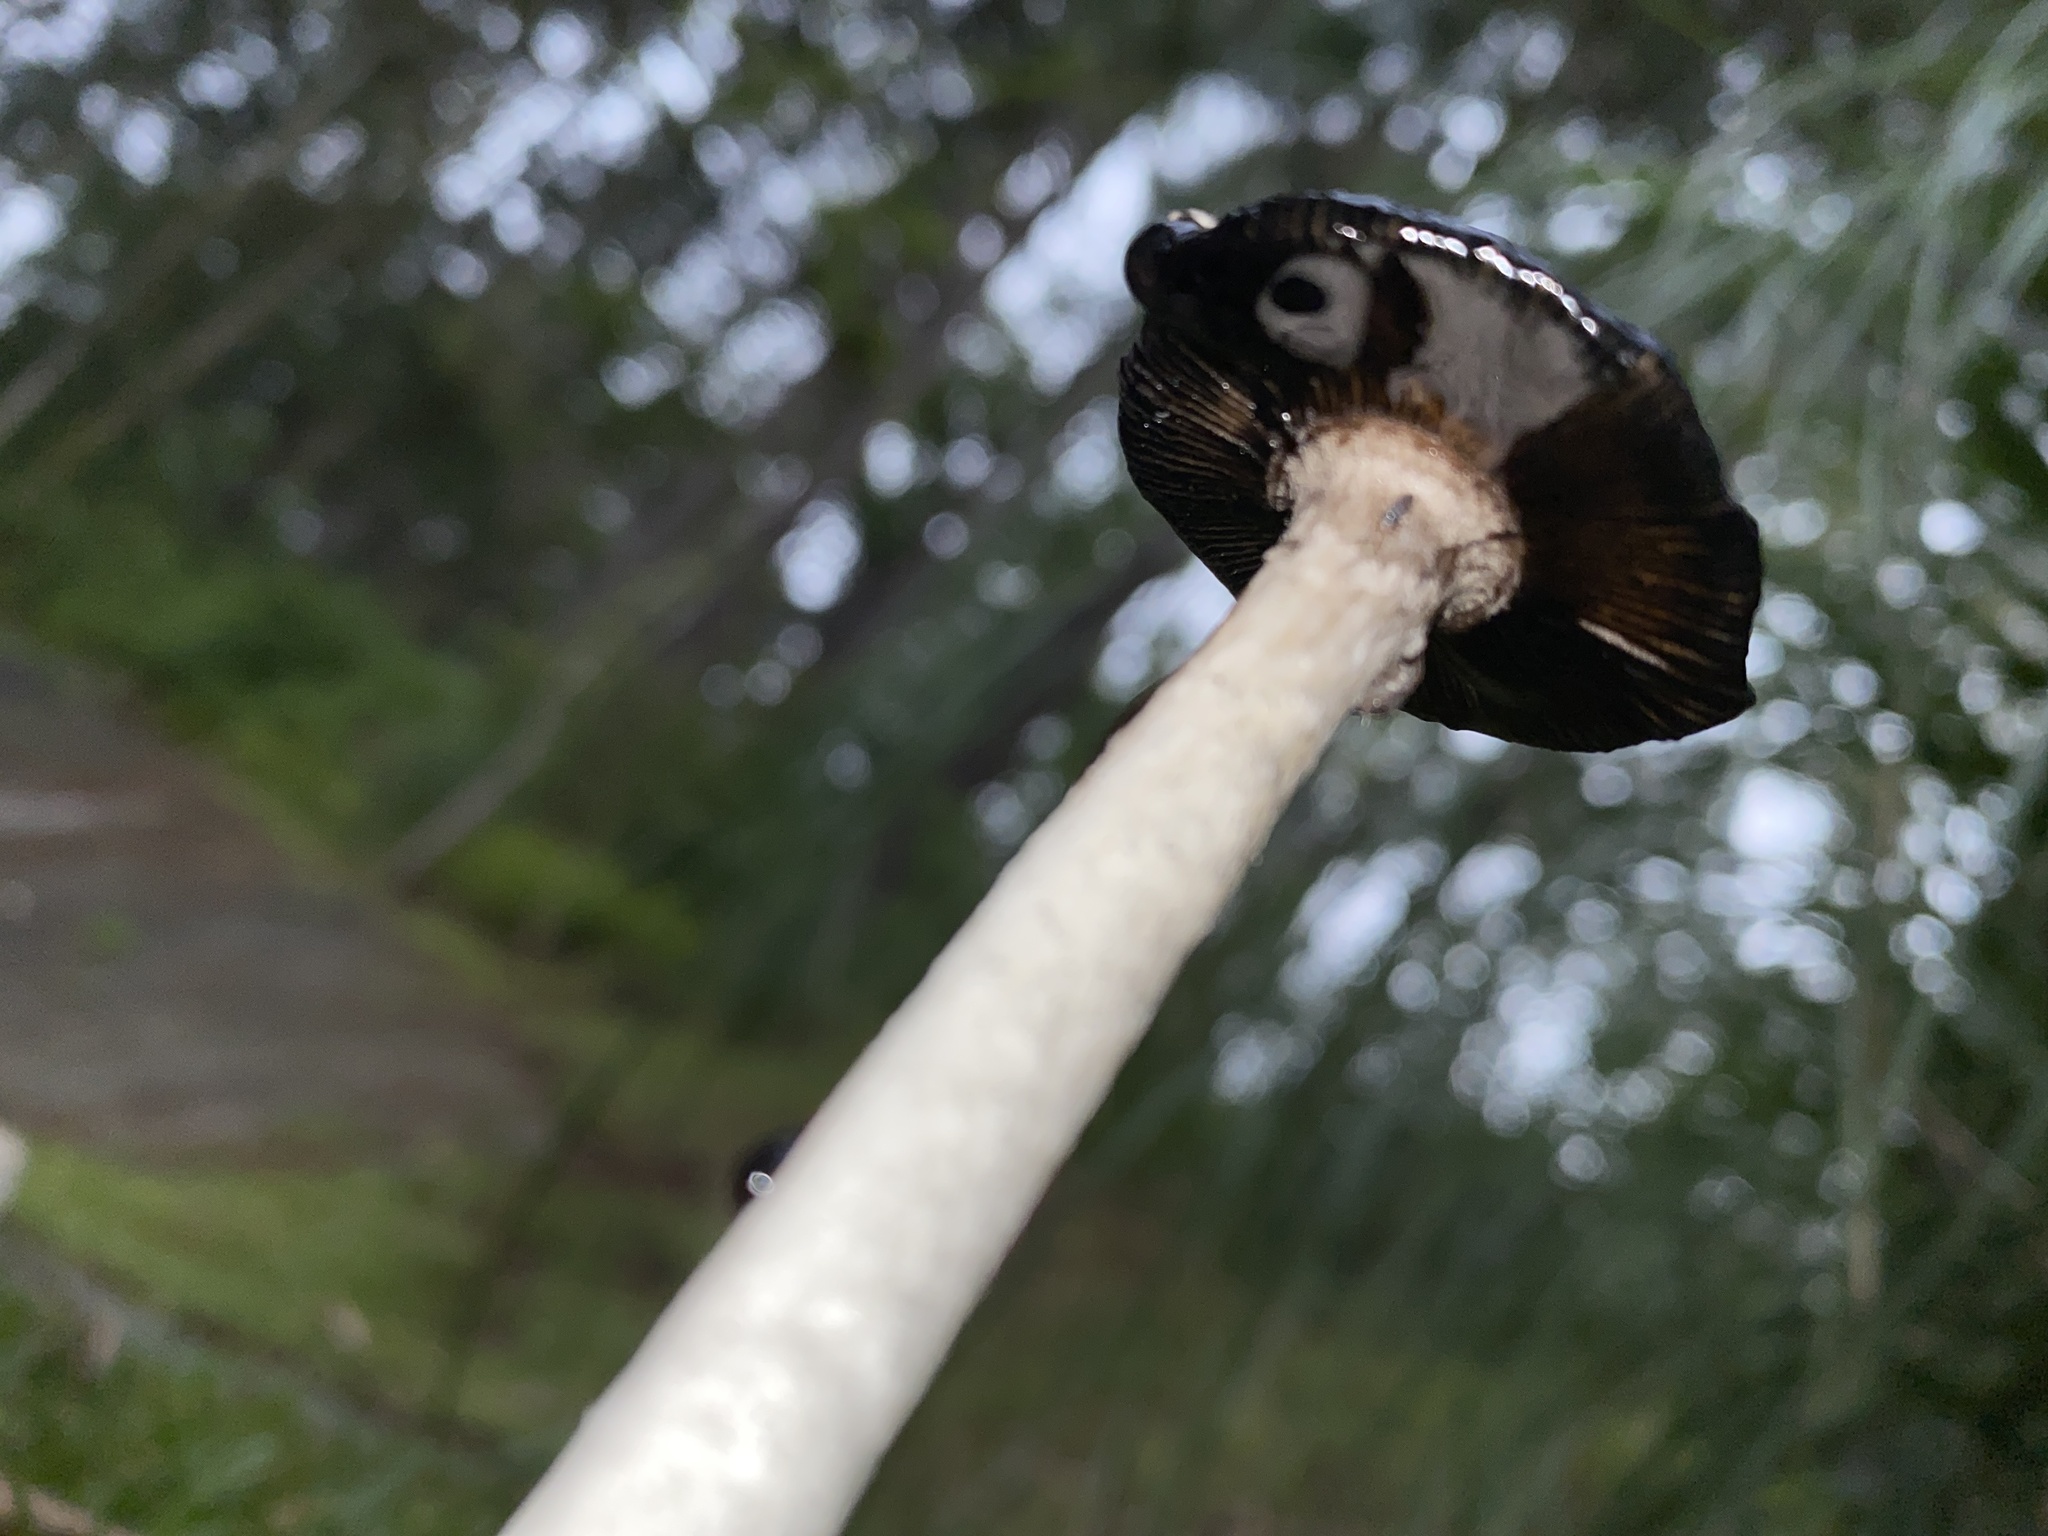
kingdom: Fungi
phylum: Basidiomycota
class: Agaricomycetes
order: Agaricales
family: Agaricaceae
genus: Coprinus
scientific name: Coprinus comatus
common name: Lawyer's wig
